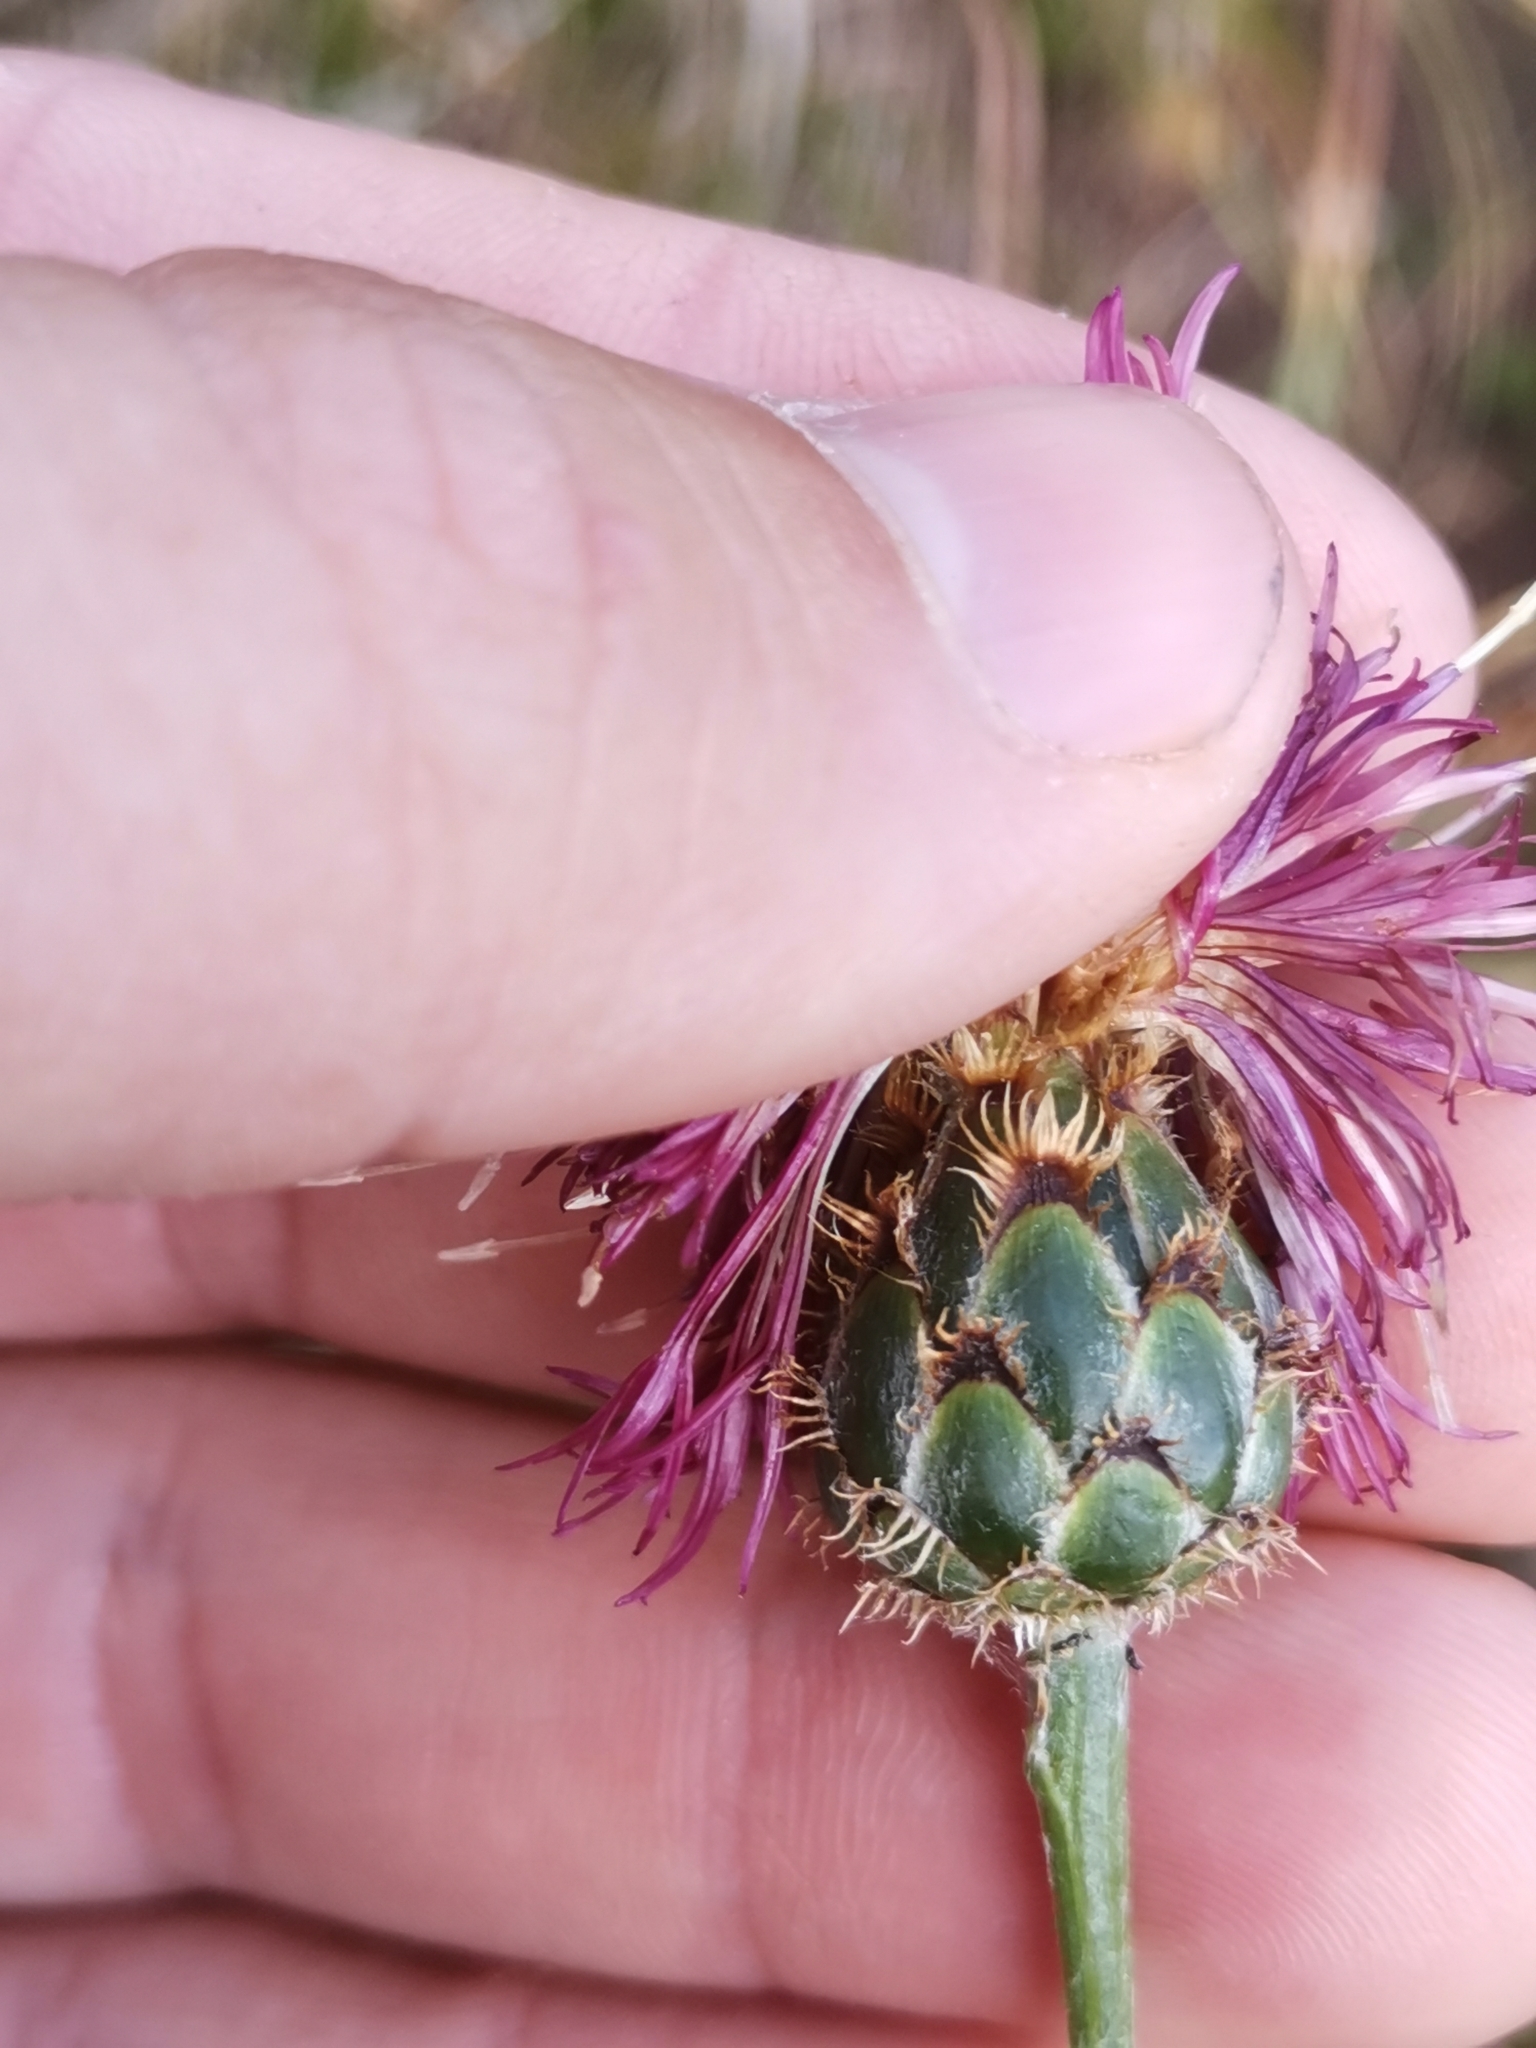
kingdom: Plantae
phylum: Tracheophyta
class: Magnoliopsida
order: Asterales
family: Asteraceae
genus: Centaurea
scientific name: Centaurea scabiosa
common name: Greater knapweed
